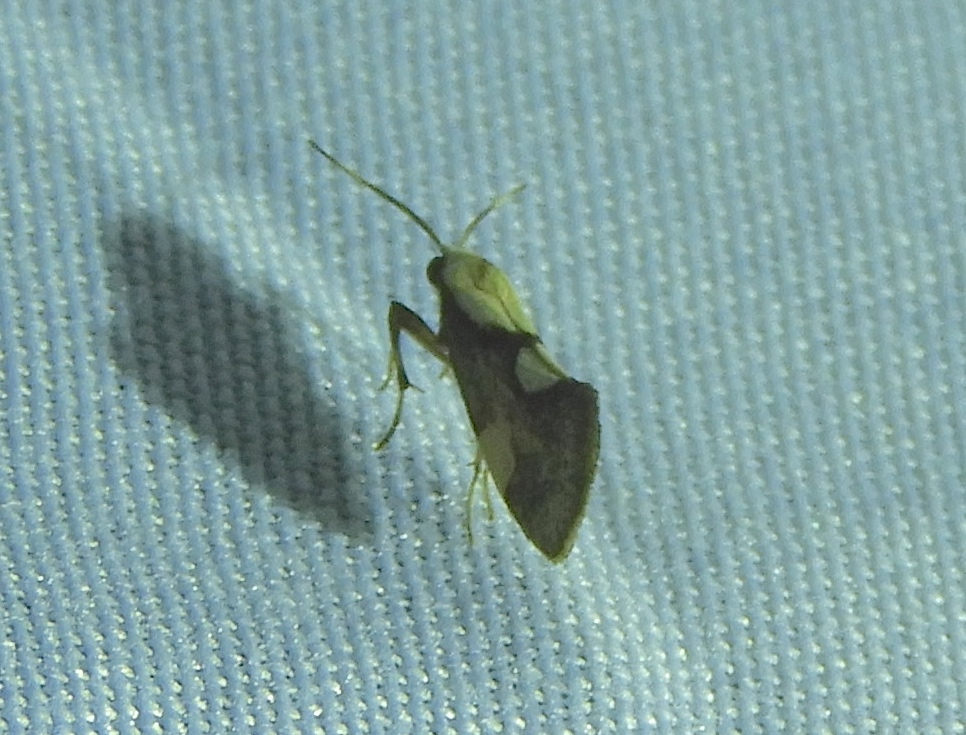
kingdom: Animalia
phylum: Arthropoda
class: Insecta
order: Lepidoptera
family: Erebidae
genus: Cisthene
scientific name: Cisthene
